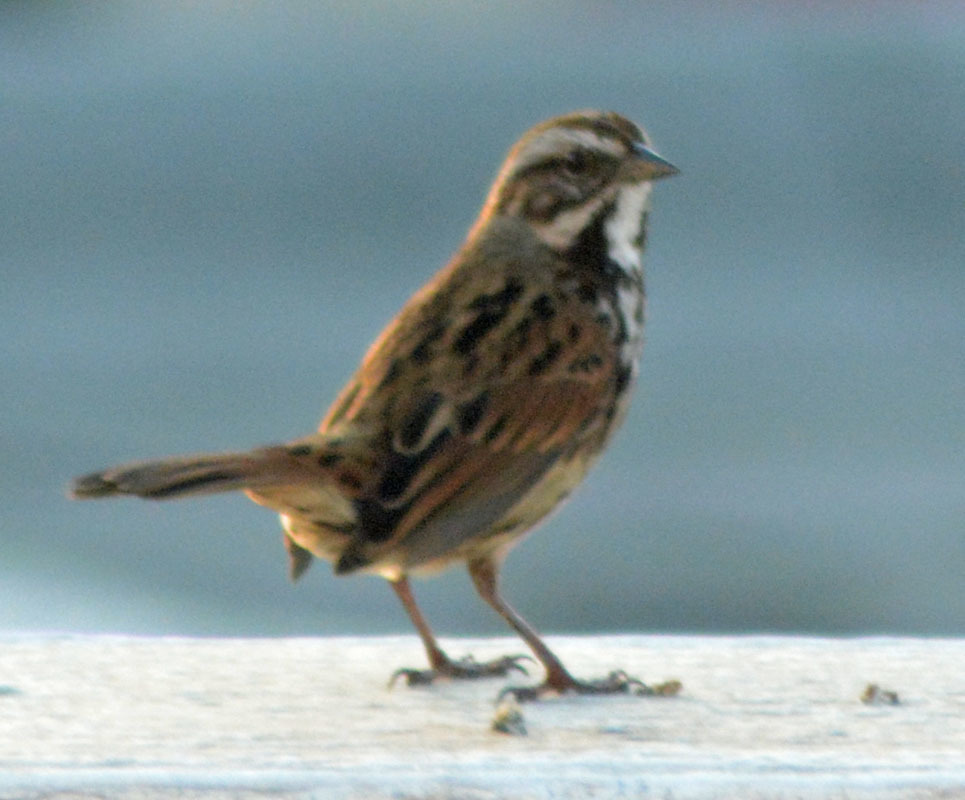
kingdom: Animalia
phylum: Chordata
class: Aves
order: Passeriformes
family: Passerellidae
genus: Melospiza
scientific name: Melospiza melodia
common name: Song sparrow
